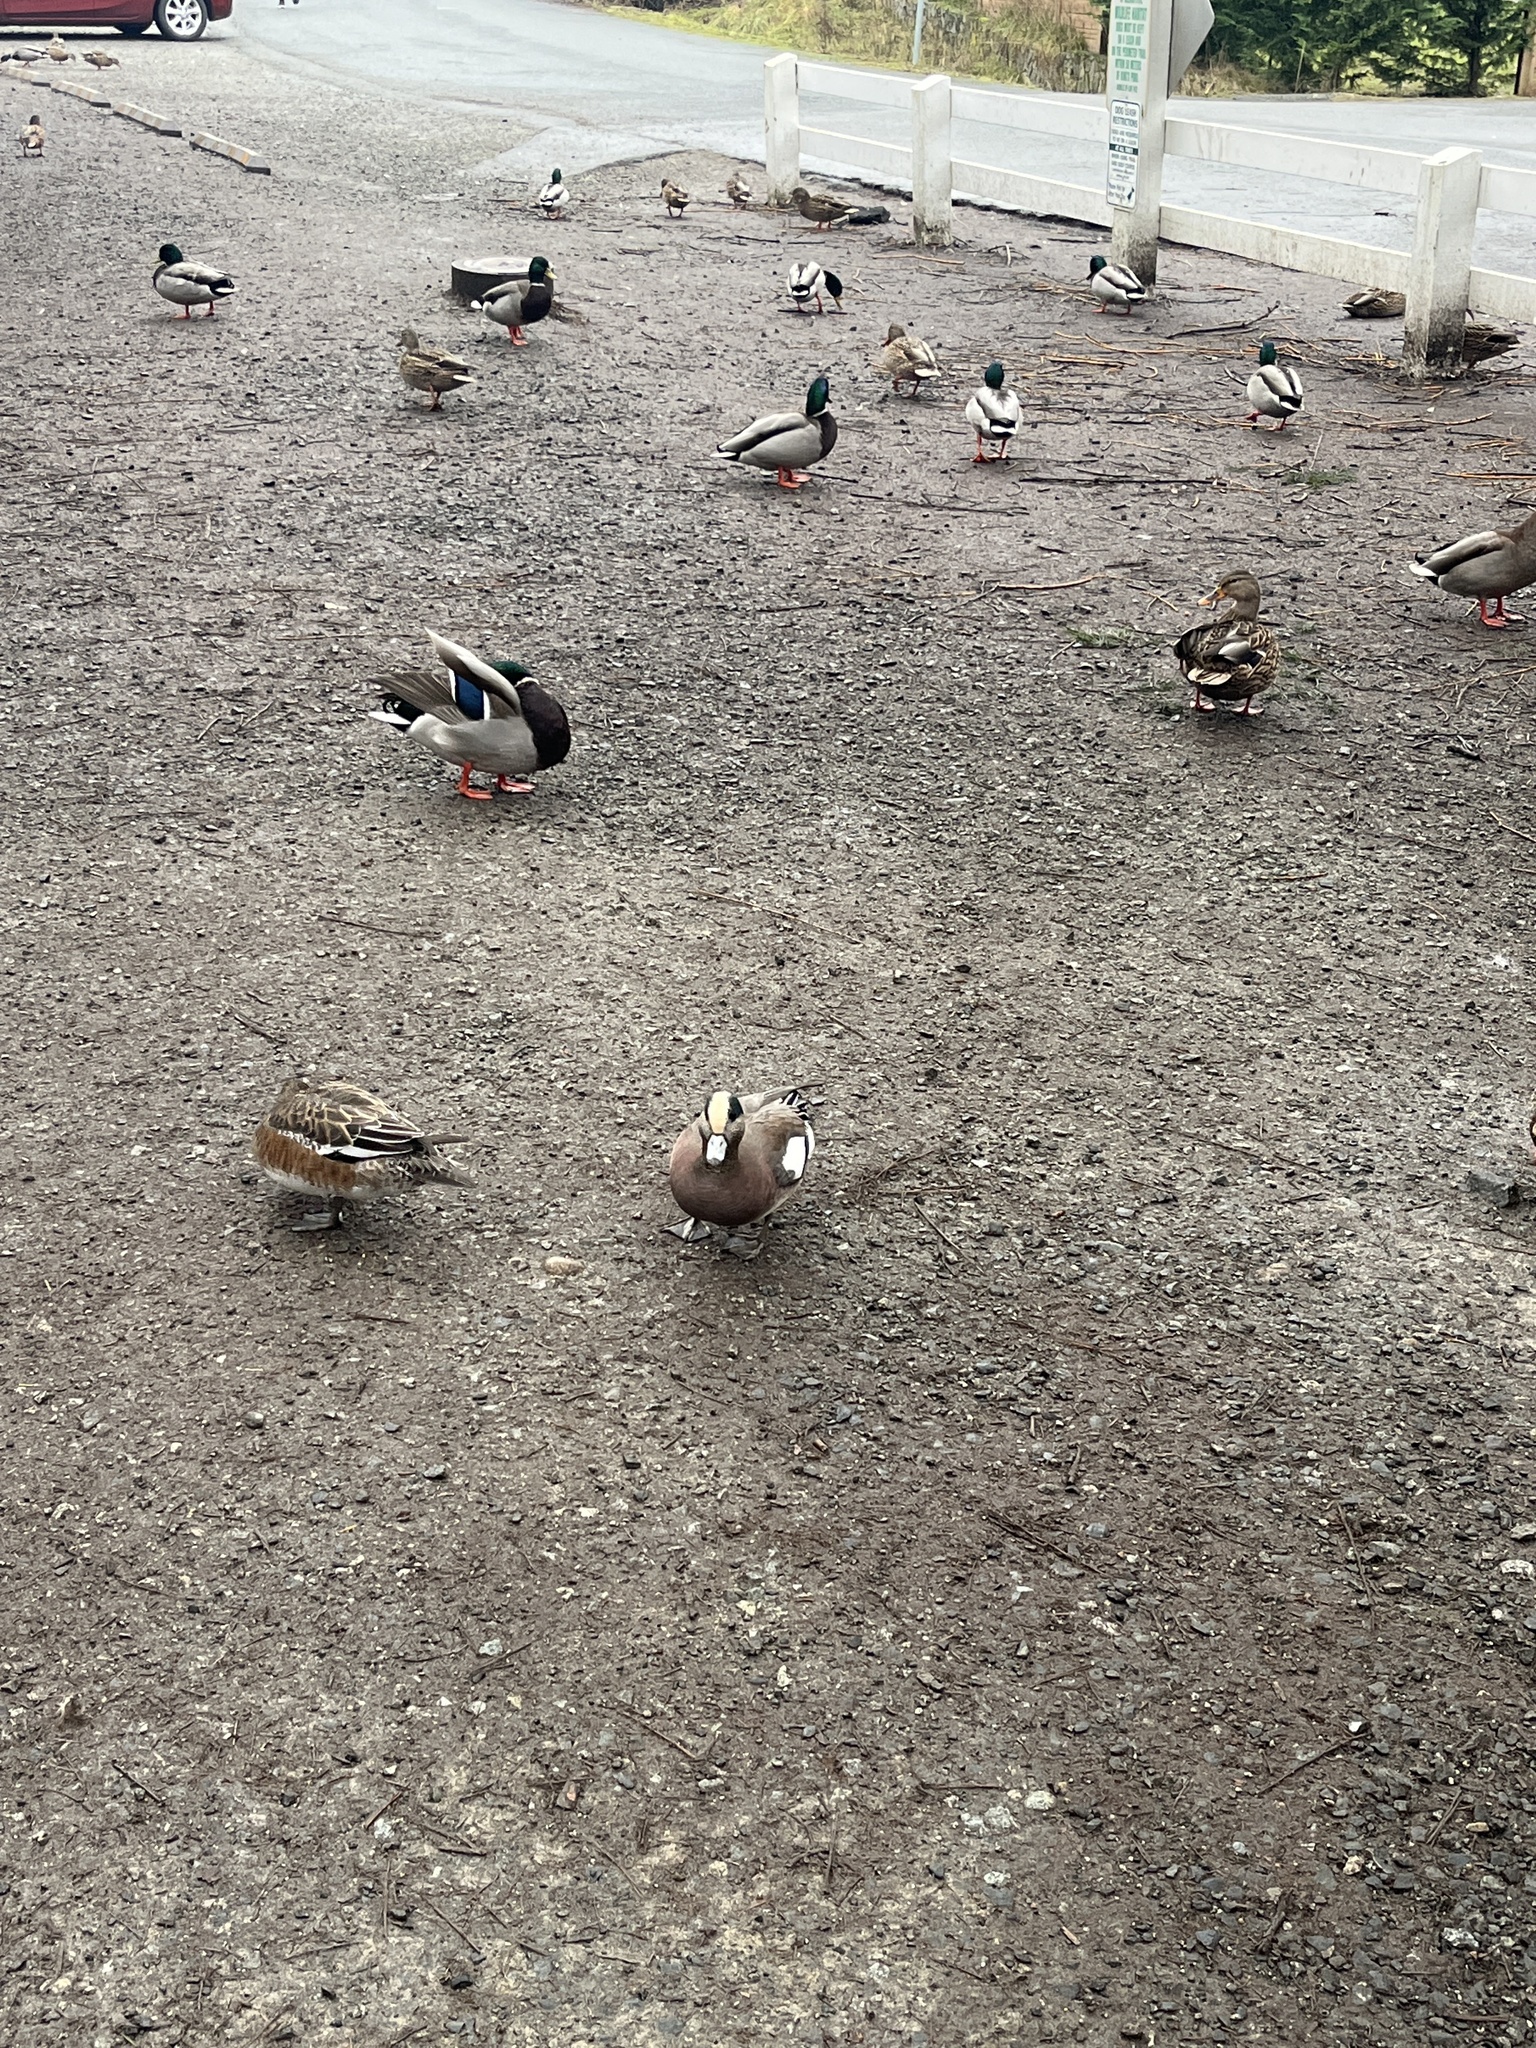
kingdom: Animalia
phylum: Chordata
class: Aves
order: Anseriformes
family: Anatidae
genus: Mareca
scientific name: Mareca americana
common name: American wigeon
